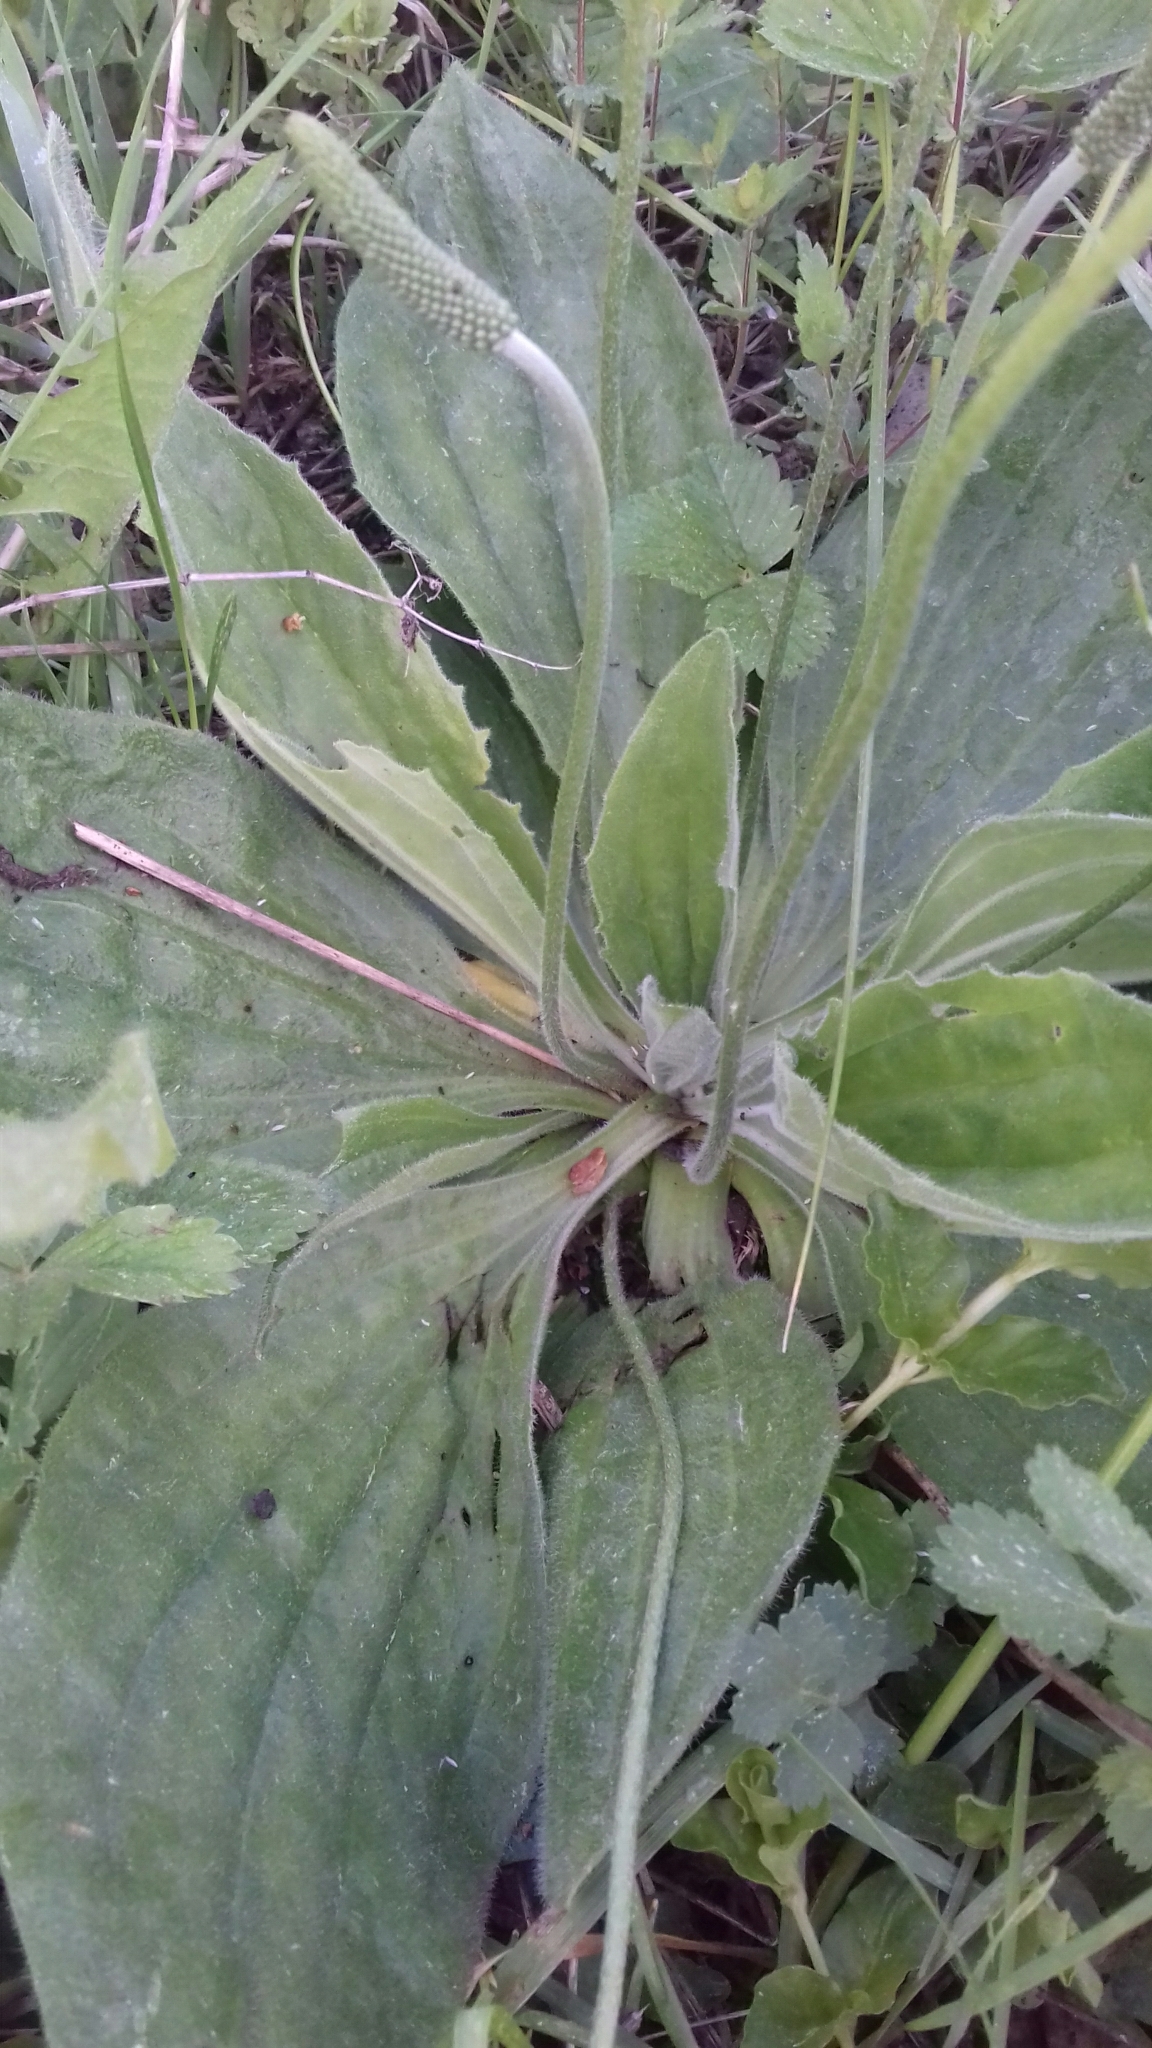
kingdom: Plantae
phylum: Tracheophyta
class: Magnoliopsida
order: Lamiales
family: Plantaginaceae
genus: Plantago
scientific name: Plantago media
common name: Hoary plantain
